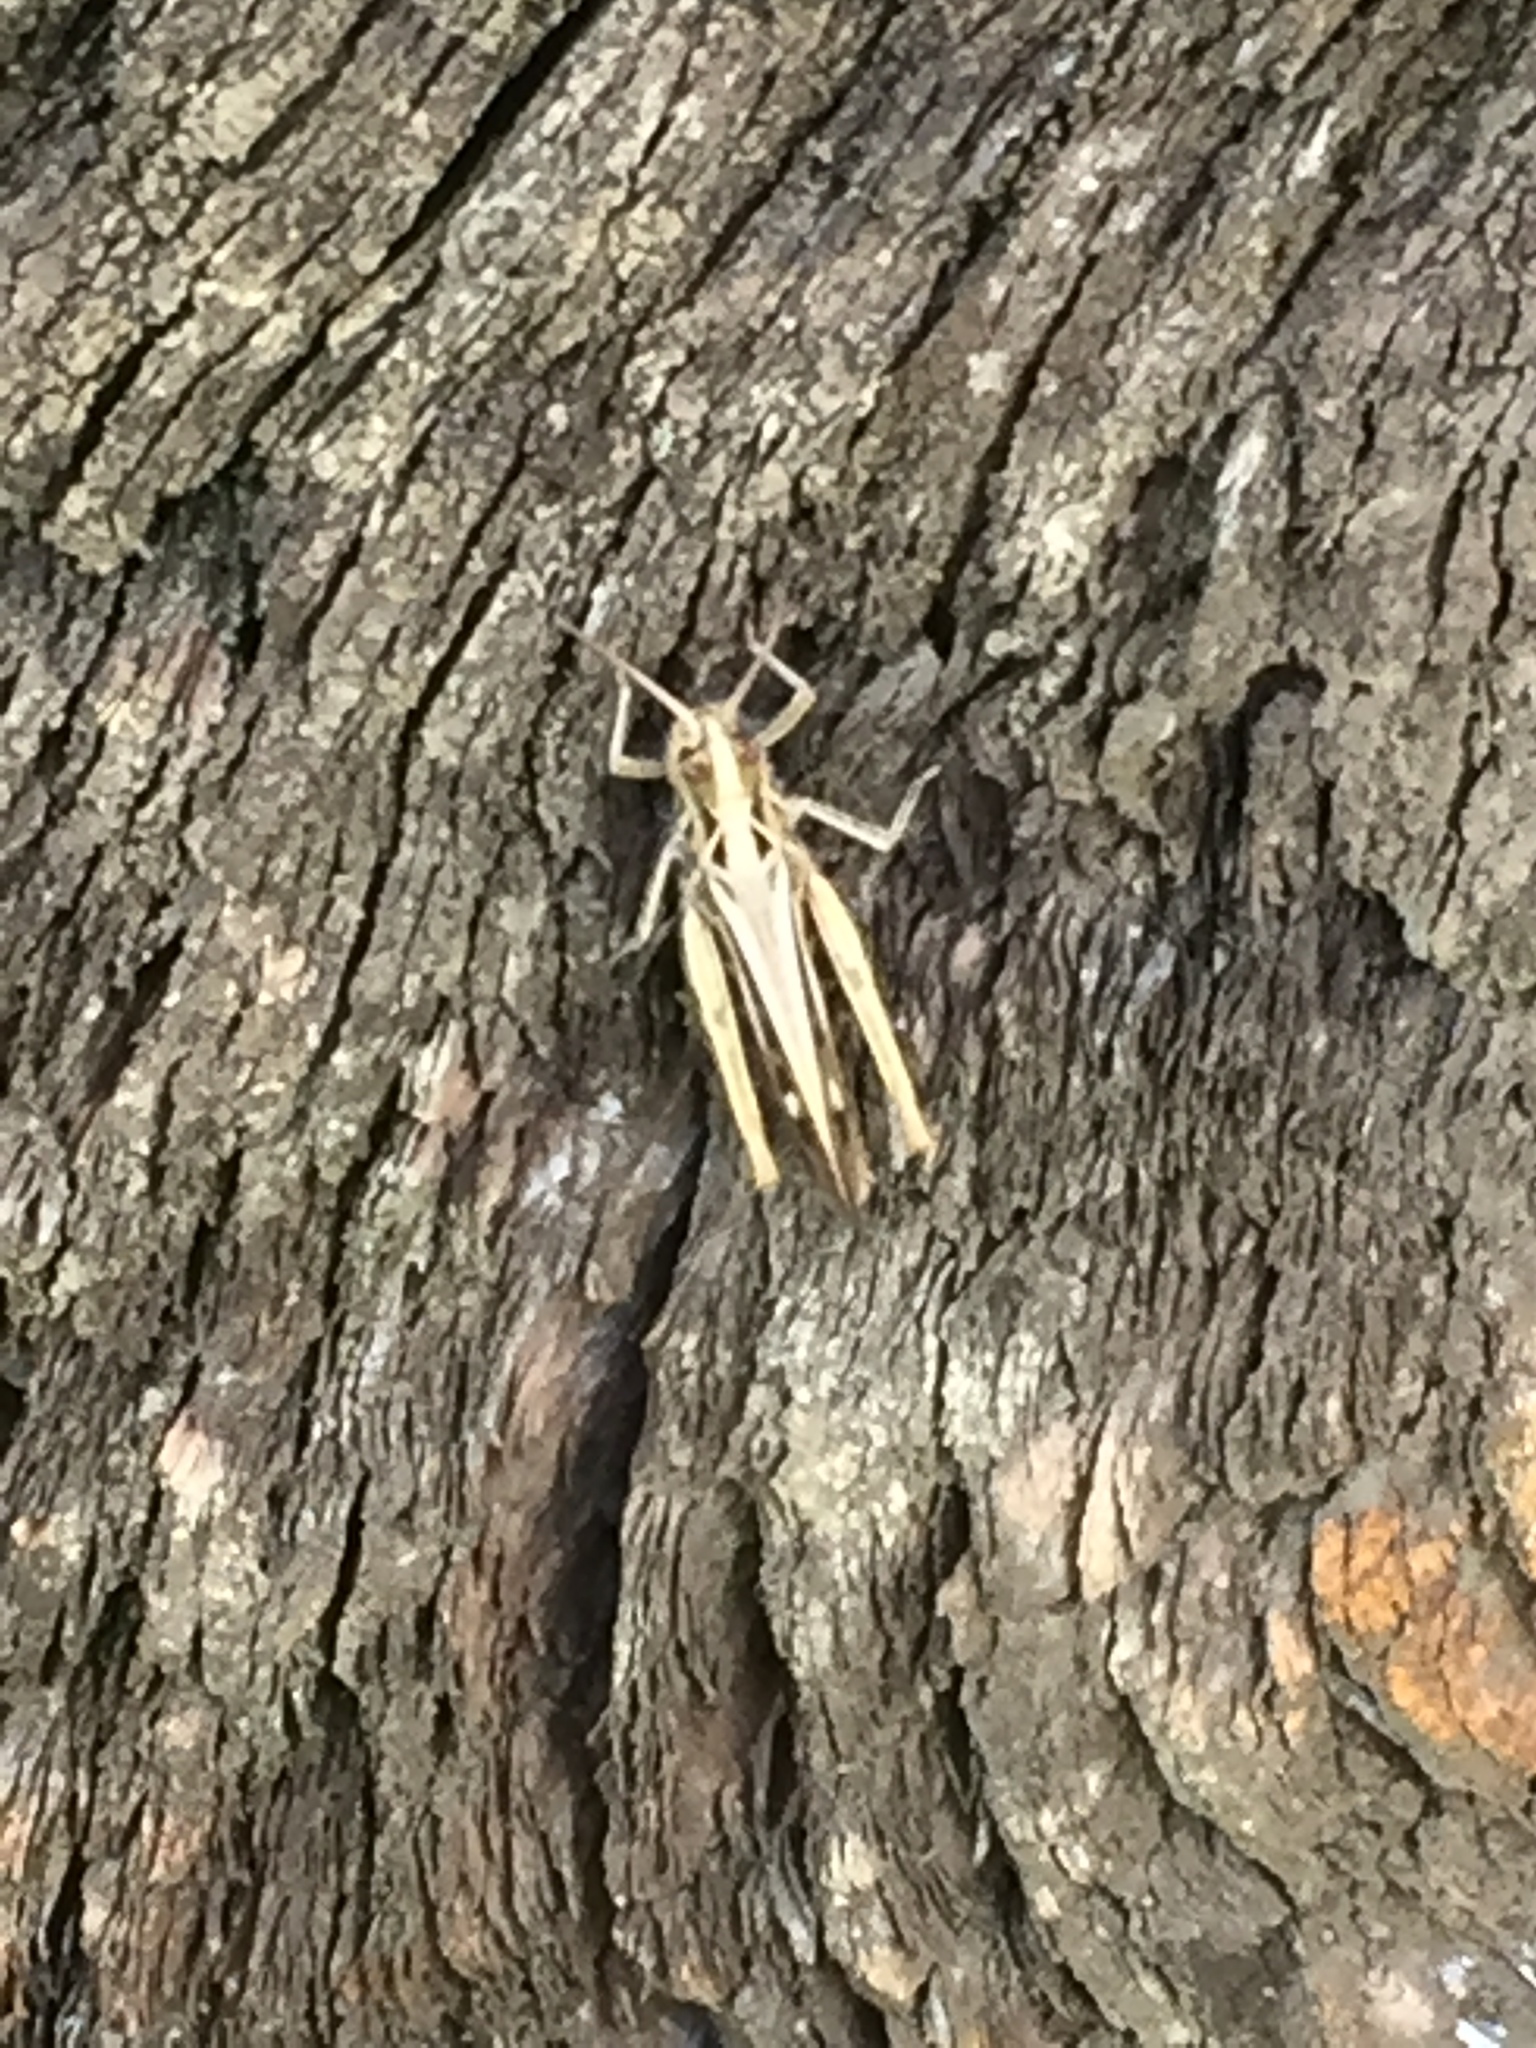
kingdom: Animalia
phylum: Arthropoda
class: Insecta
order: Orthoptera
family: Acrididae
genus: Myrmeleotettix
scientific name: Myrmeleotettix maculatus
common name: Mottled grasshopper
